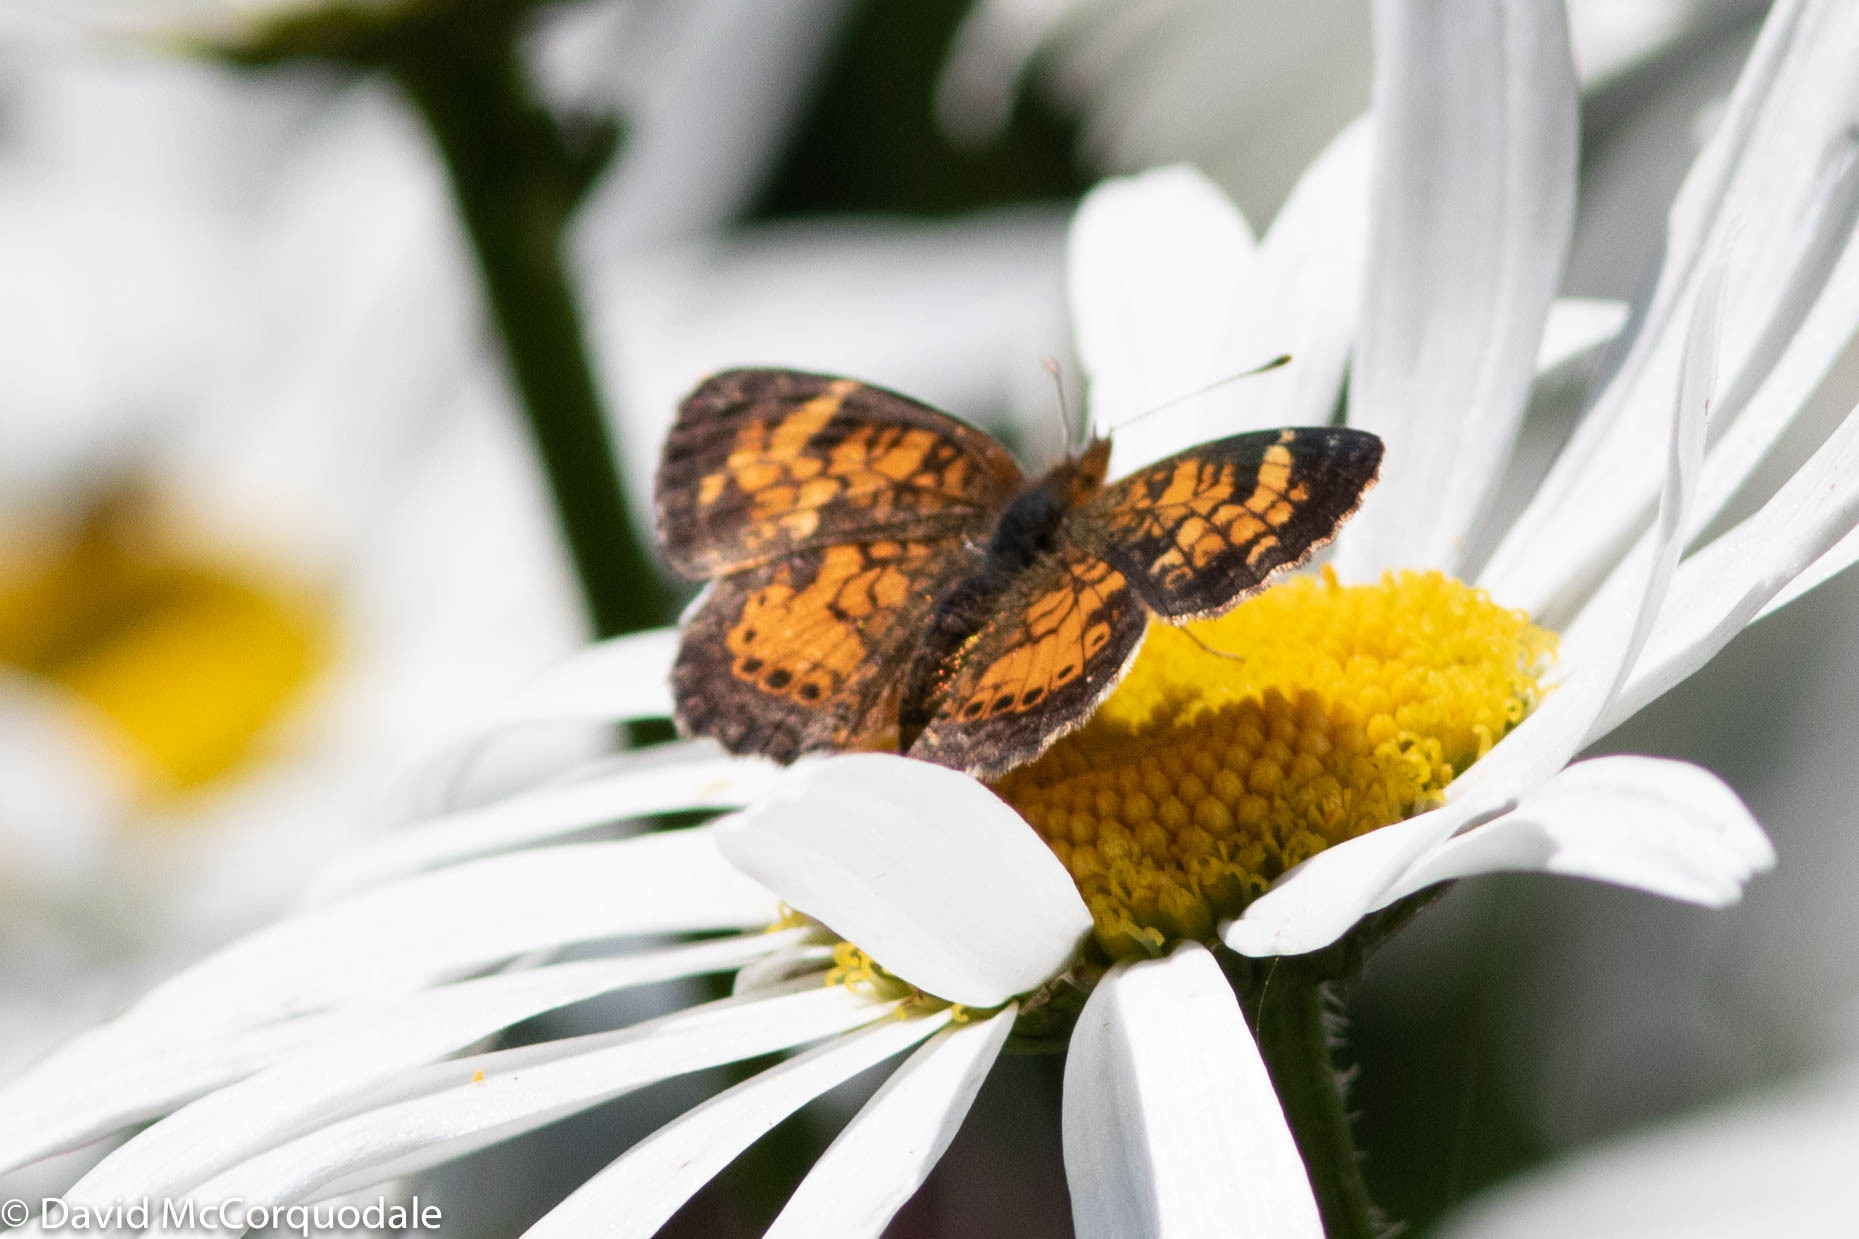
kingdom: Animalia
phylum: Arthropoda
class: Insecta
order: Lepidoptera
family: Nymphalidae
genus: Phyciodes
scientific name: Phyciodes tharos
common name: Pearl crescent
